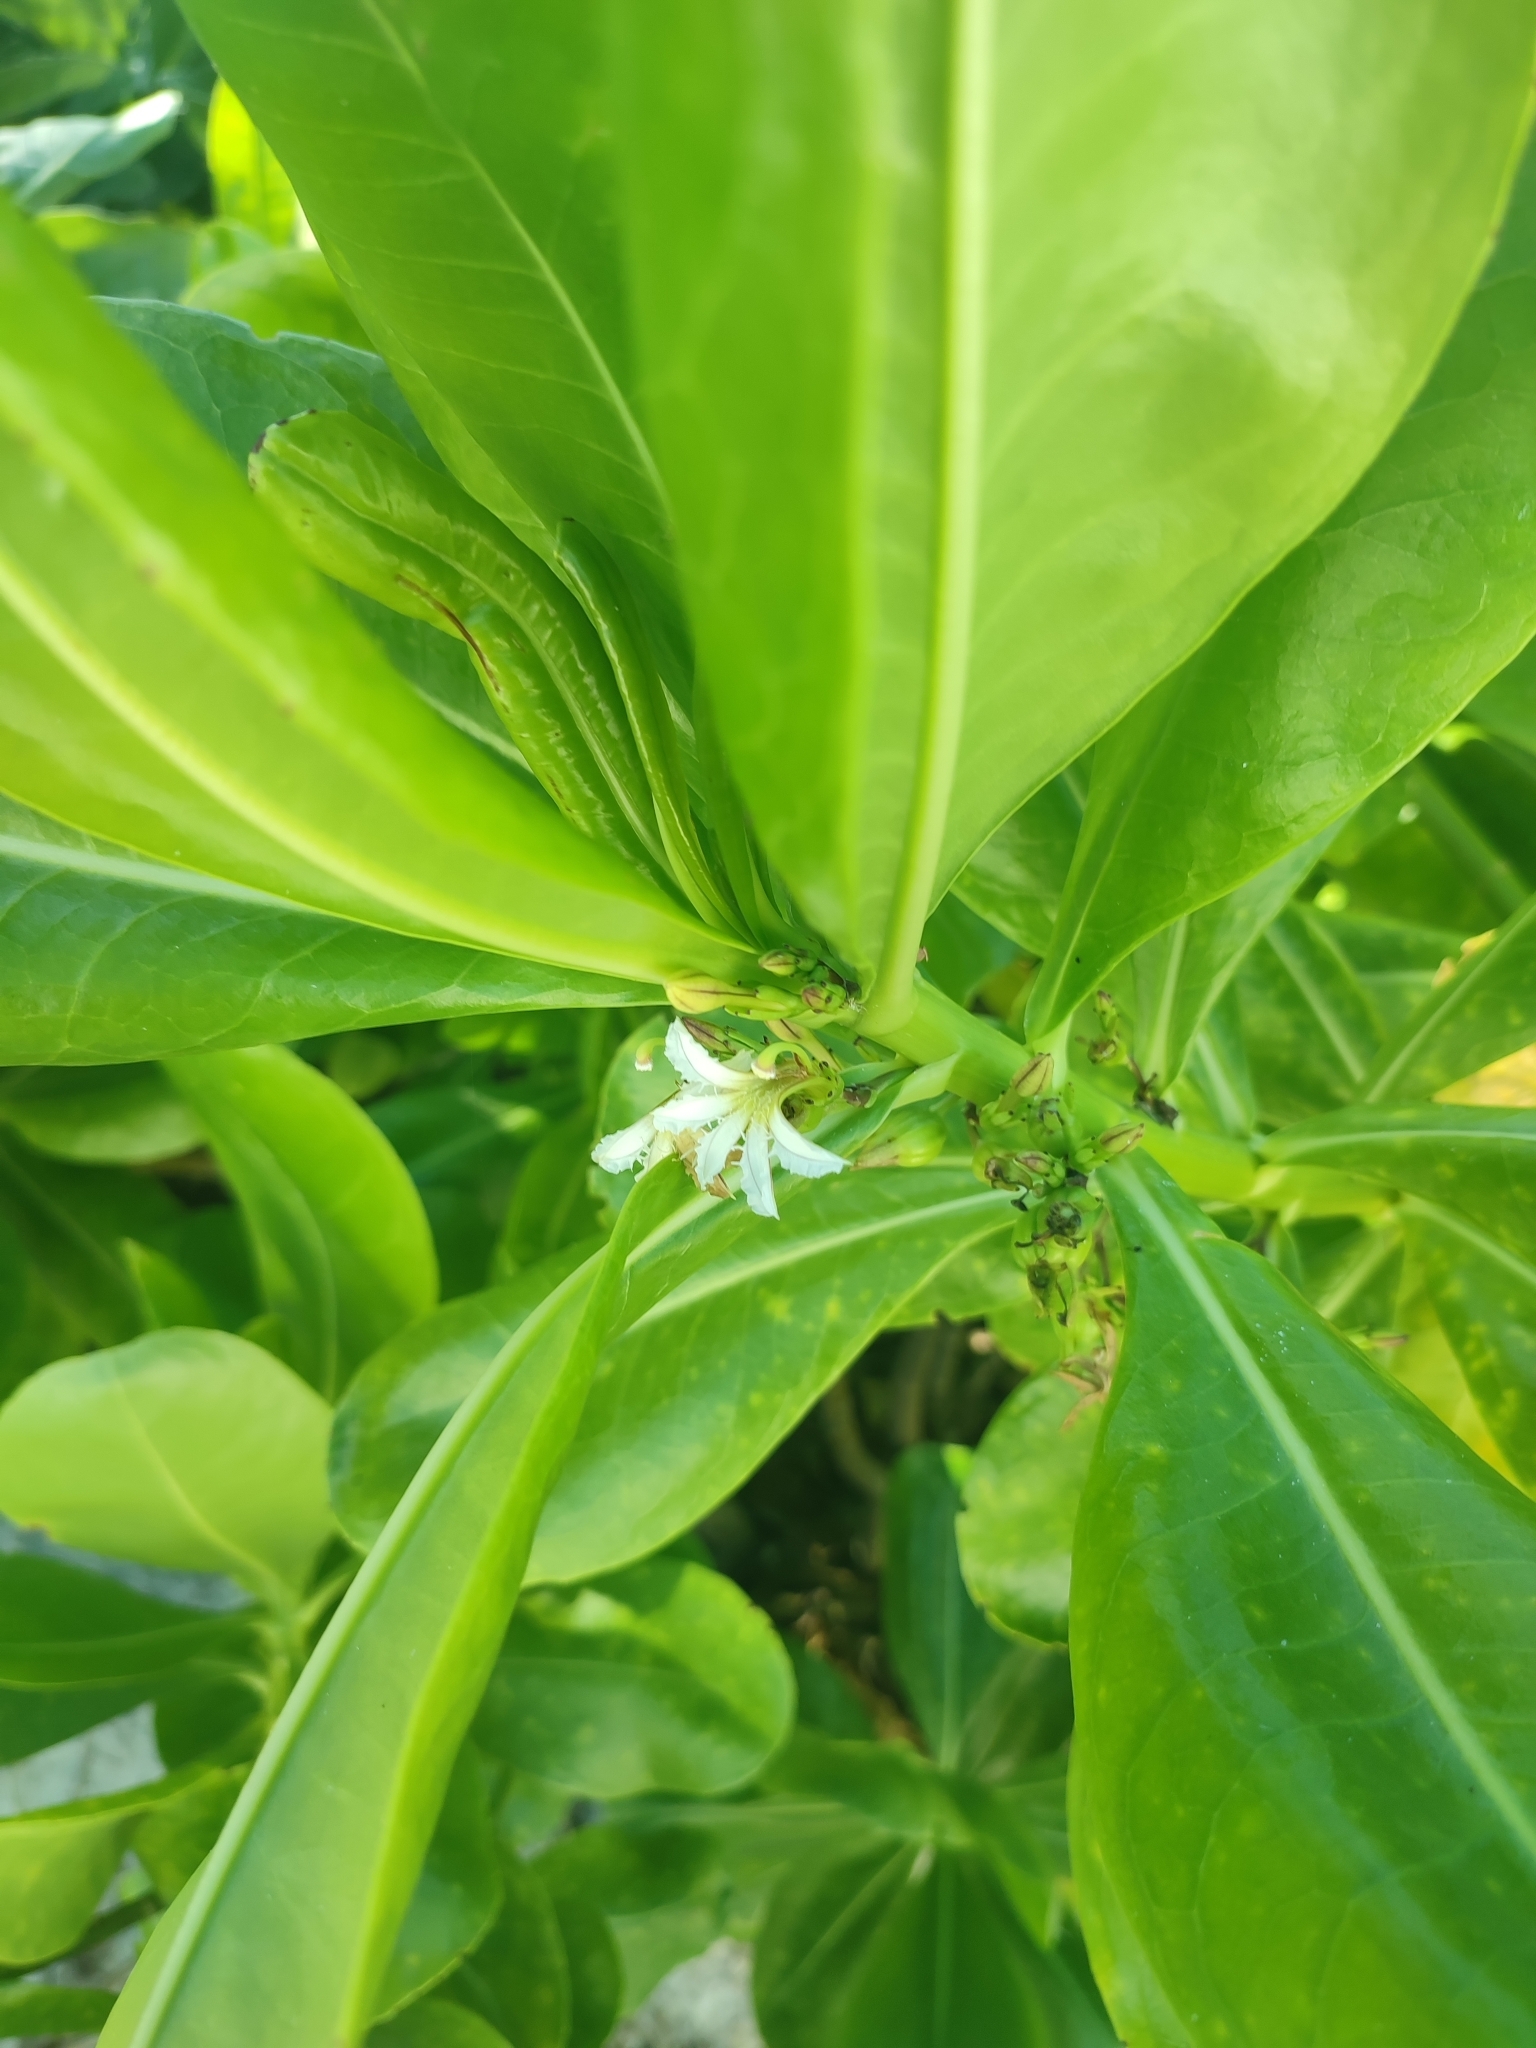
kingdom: Plantae
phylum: Tracheophyta
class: Magnoliopsida
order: Asterales
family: Goodeniaceae
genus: Scaevola
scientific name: Scaevola taccada
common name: Sea lettucetree
